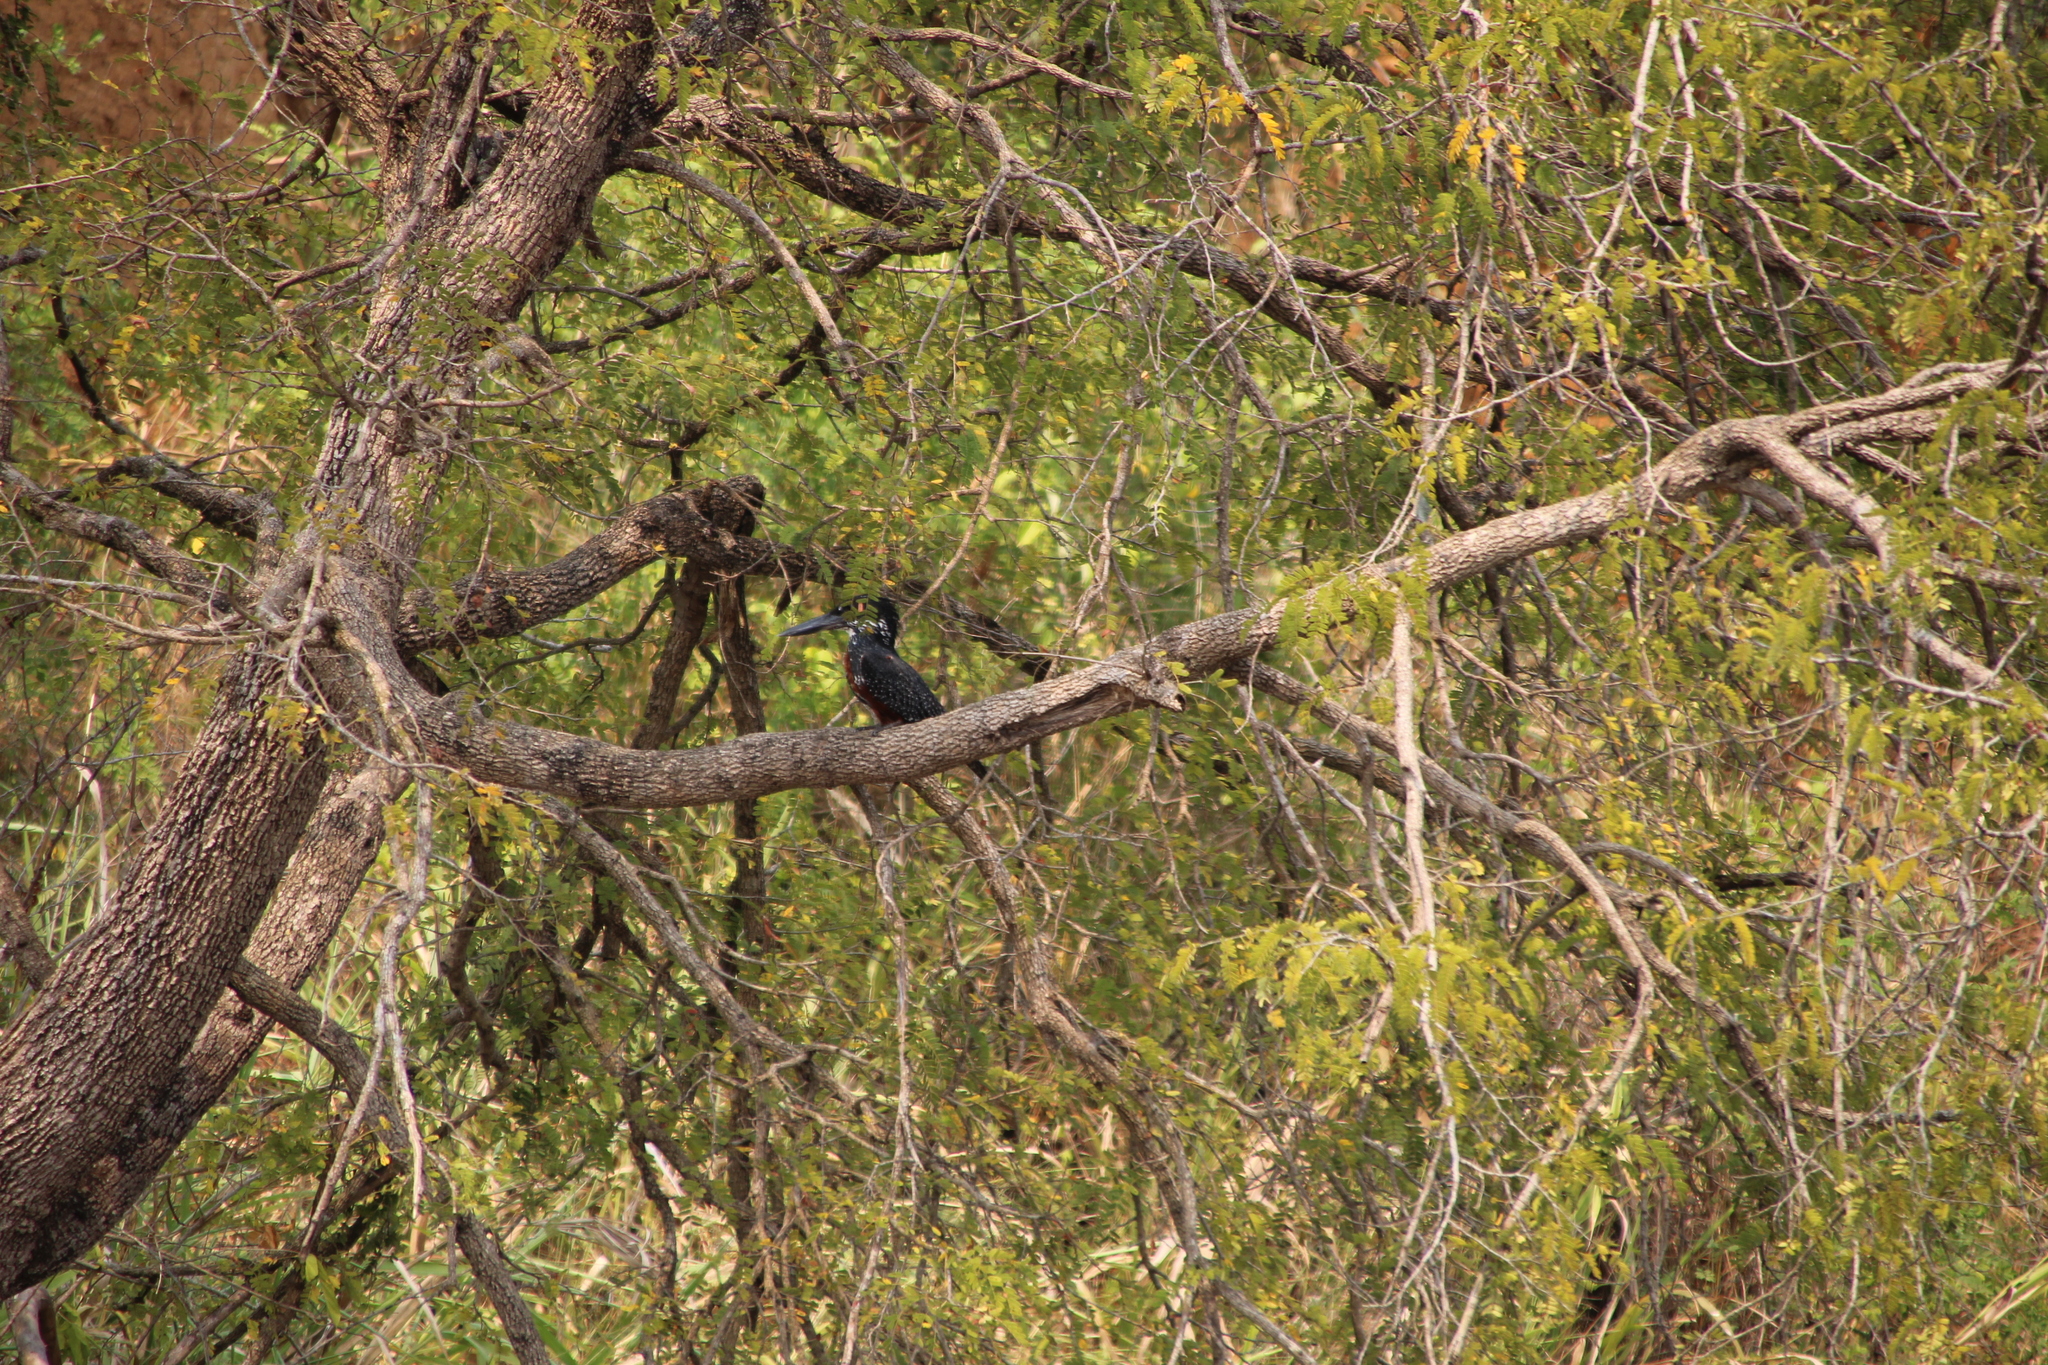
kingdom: Animalia
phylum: Chordata
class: Aves
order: Coraciiformes
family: Alcedinidae
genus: Megaceryle
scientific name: Megaceryle maxima
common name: Giant kingfisher
